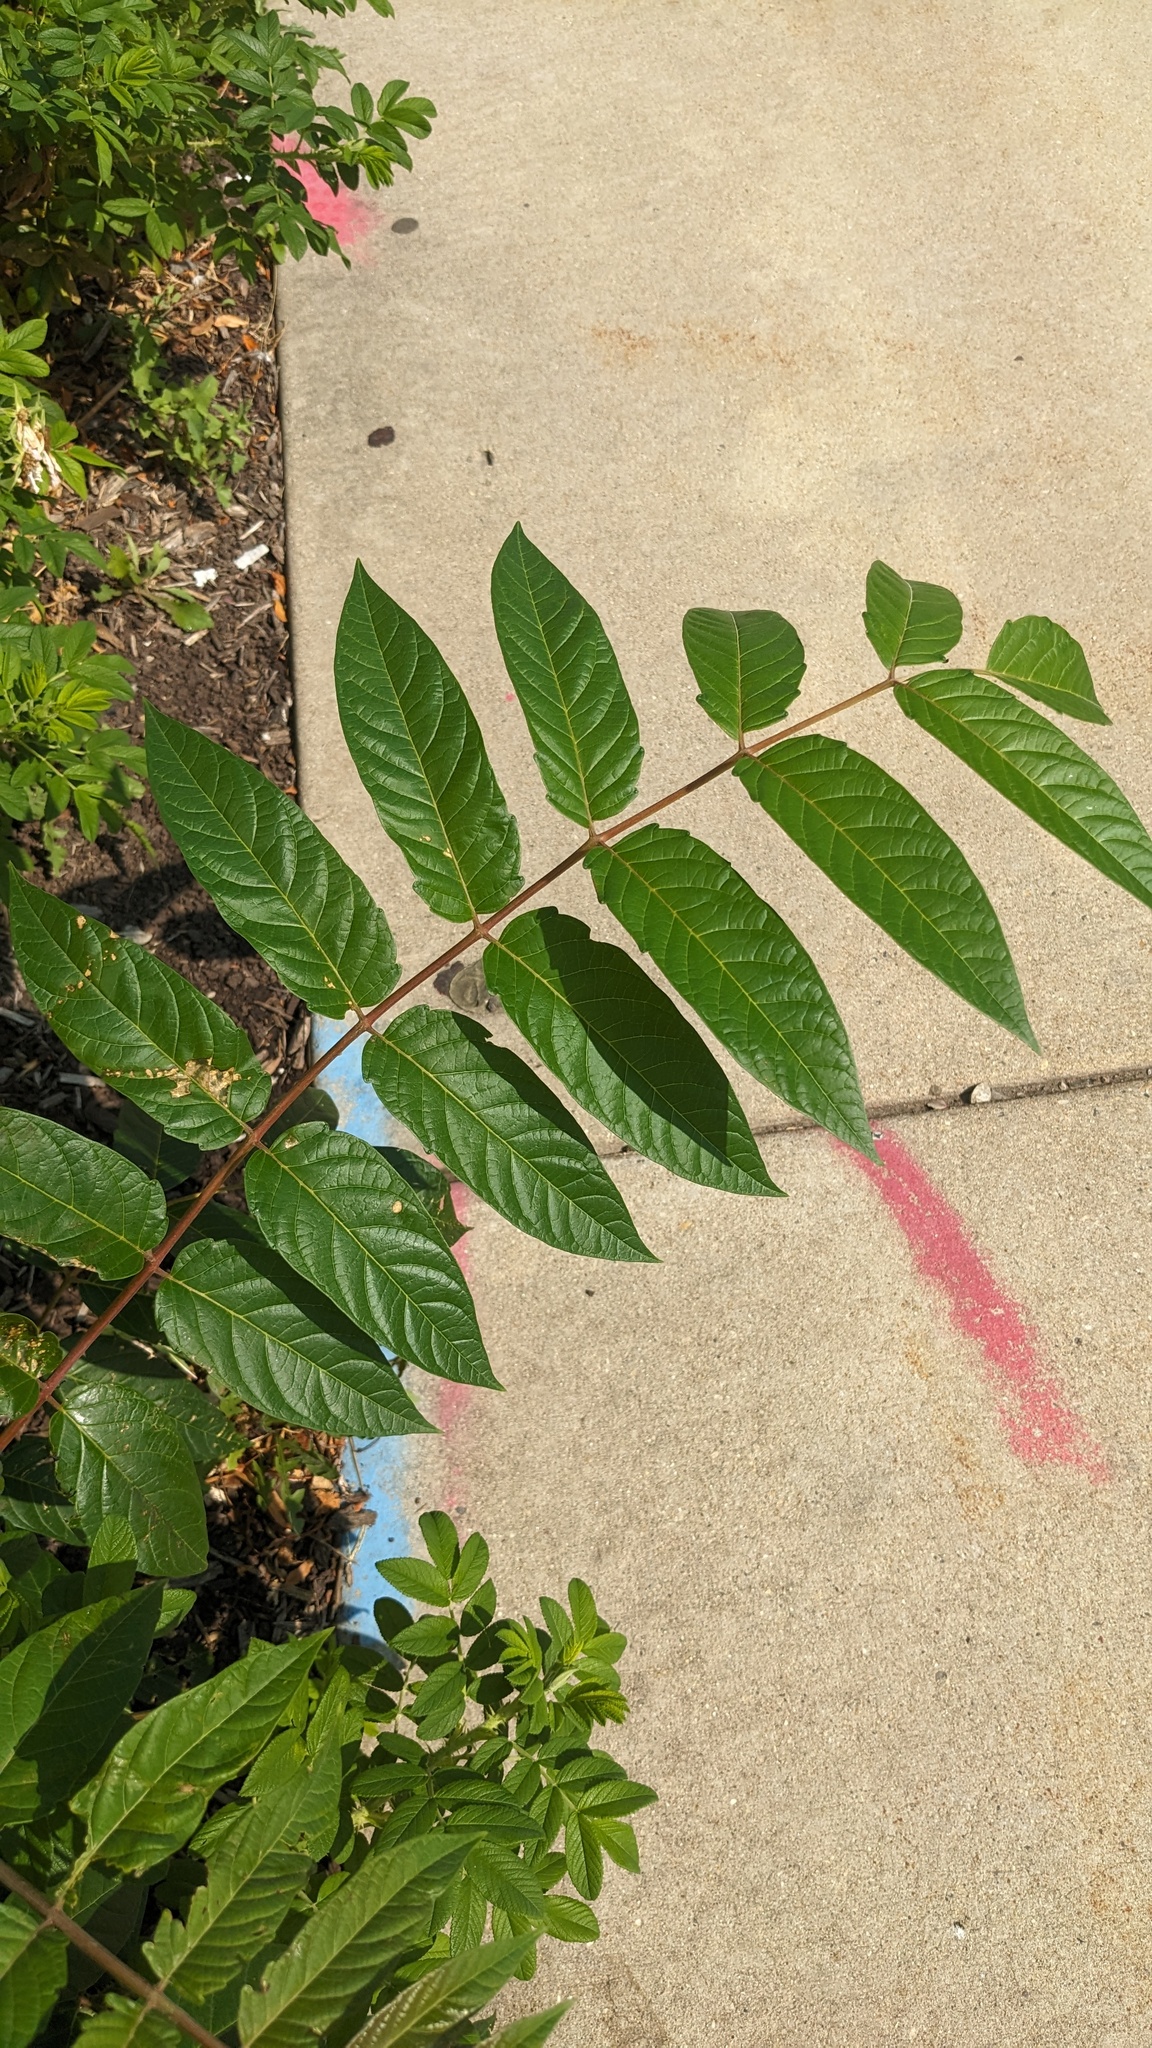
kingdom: Plantae
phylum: Tracheophyta
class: Magnoliopsida
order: Sapindales
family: Simaroubaceae
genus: Ailanthus
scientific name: Ailanthus altissima
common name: Tree-of-heaven
